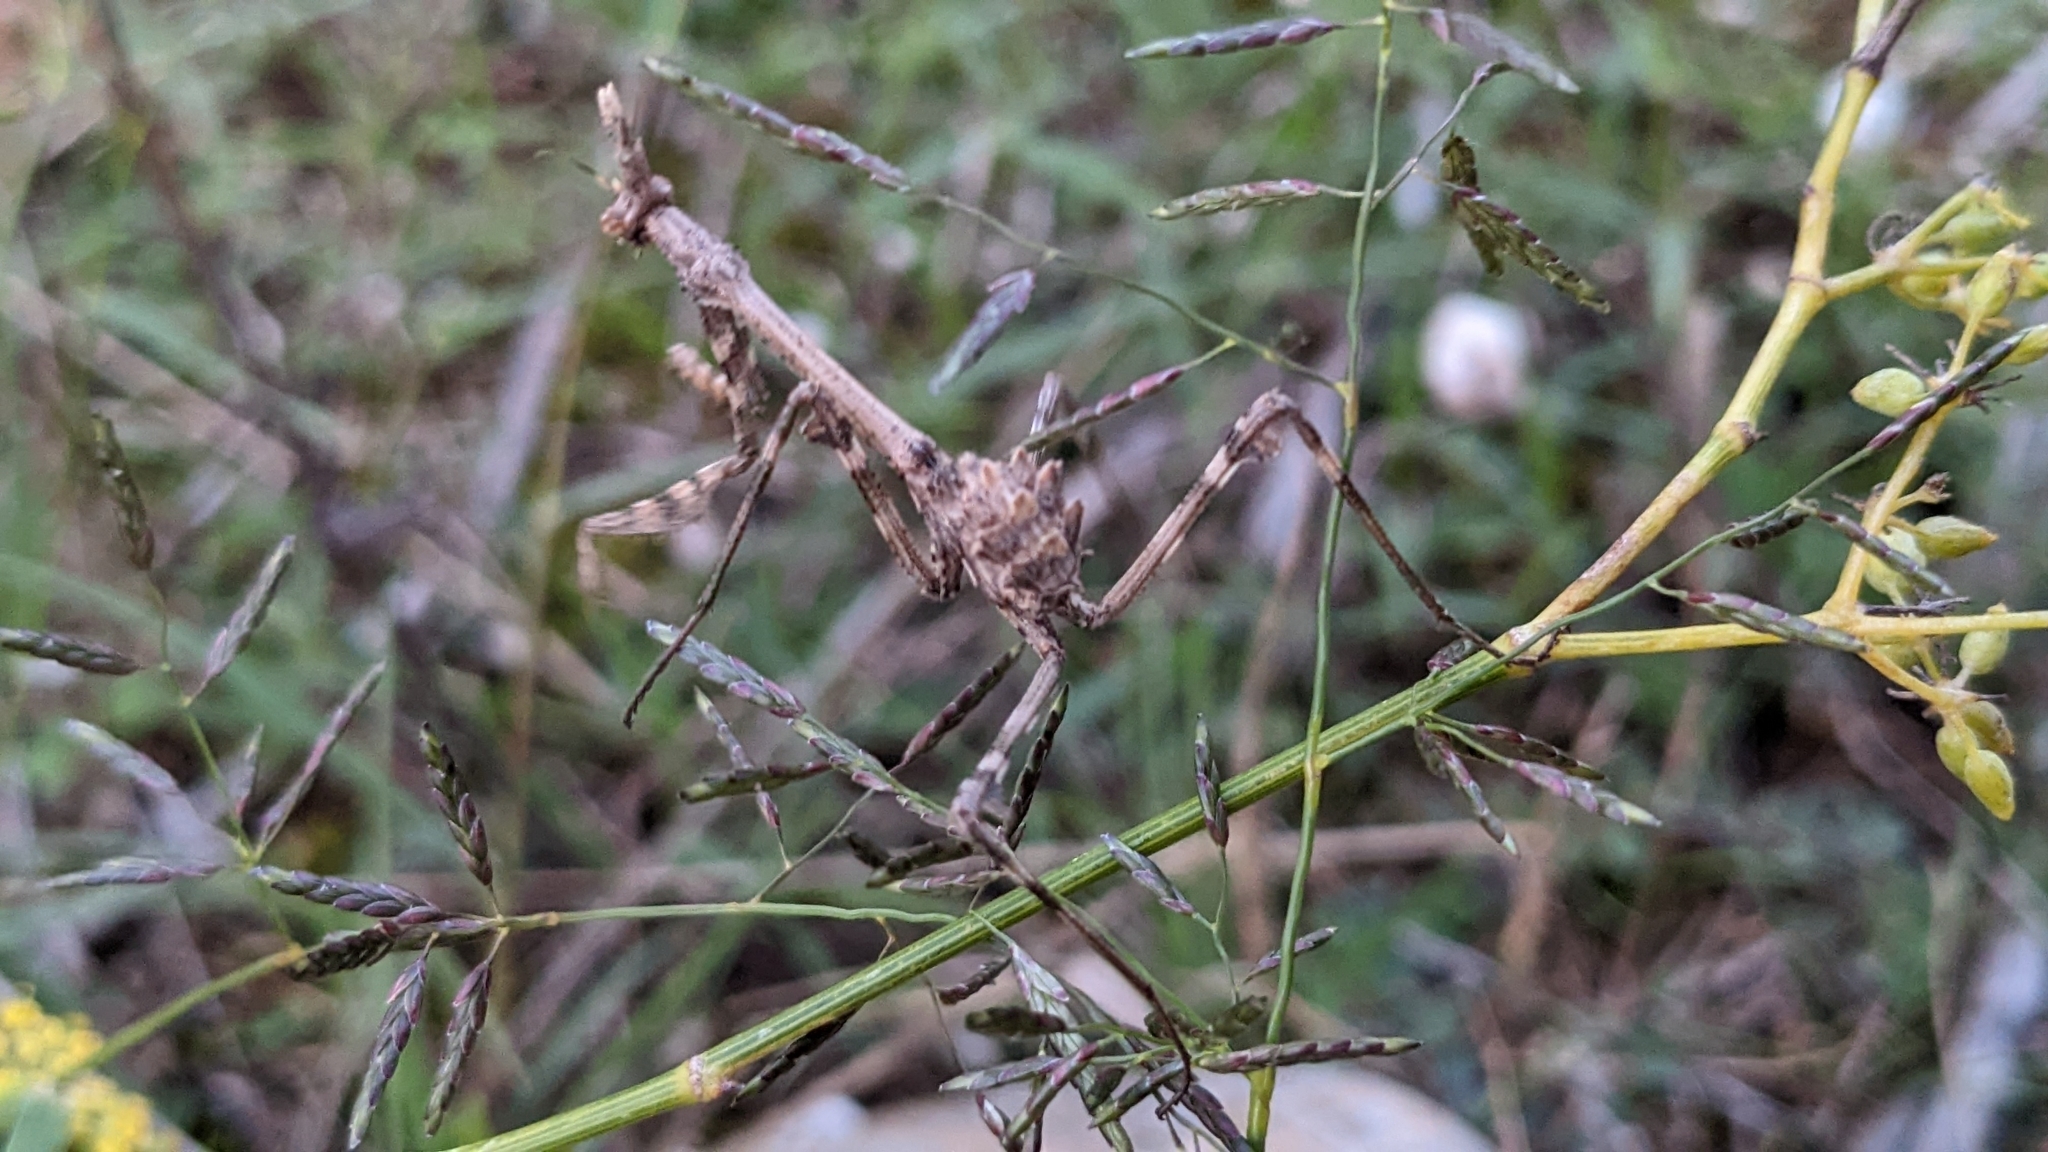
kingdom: Animalia
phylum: Arthropoda
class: Insecta
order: Mantodea
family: Empusidae
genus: Empusa
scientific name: Empusa pennata
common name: Conehead mantis
